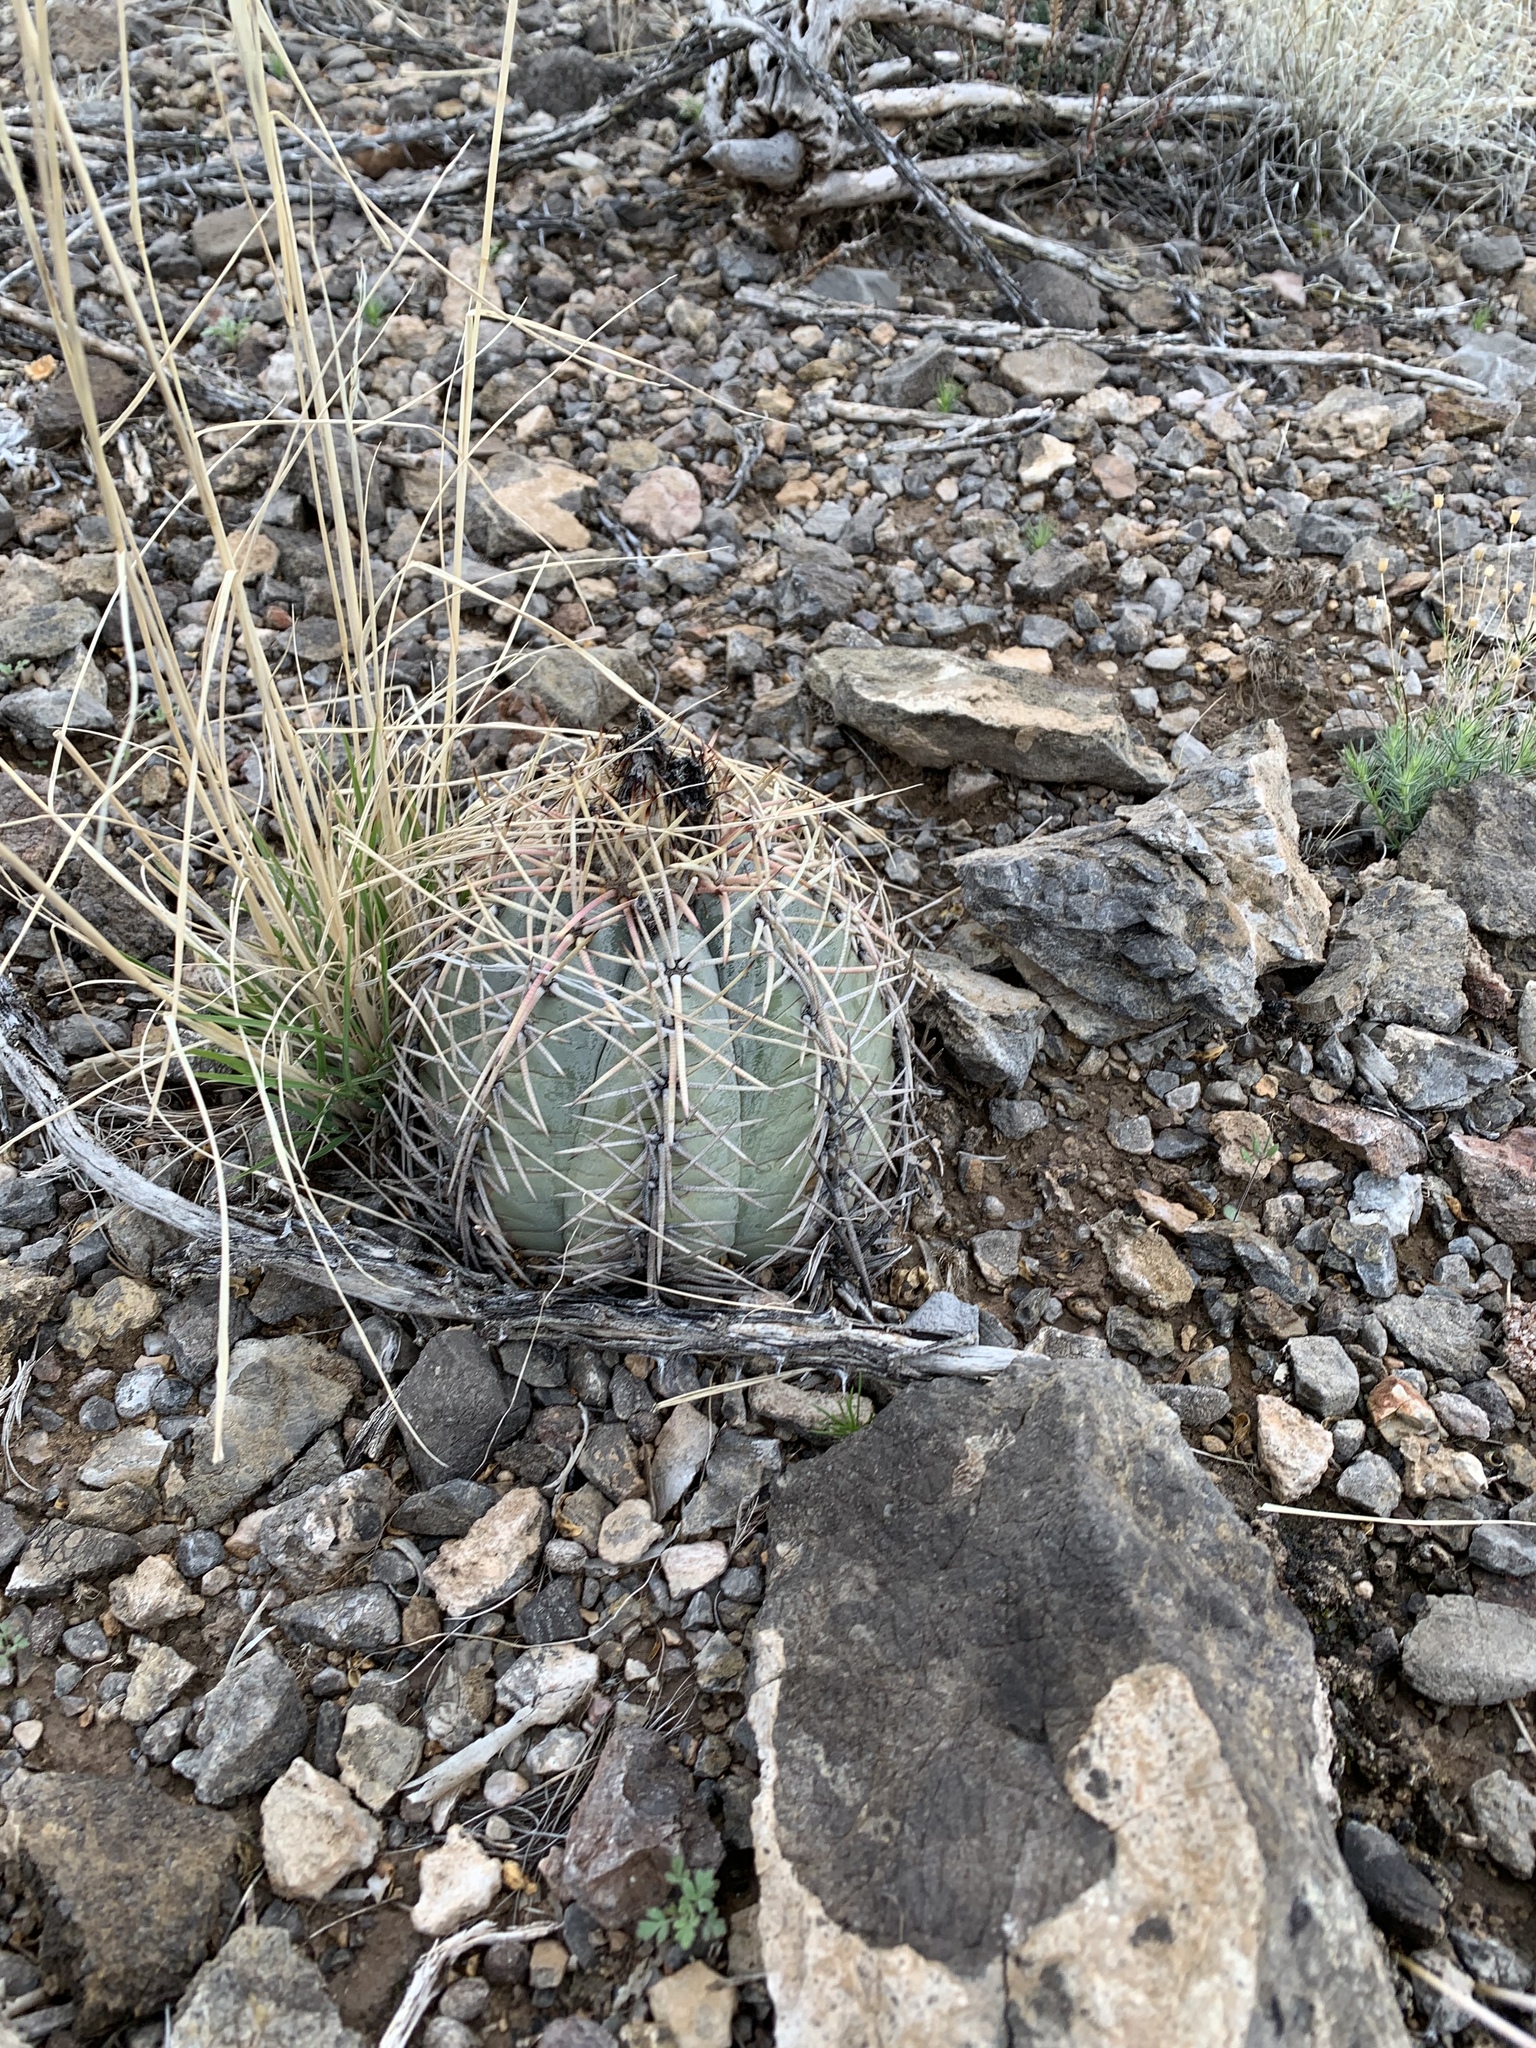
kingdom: Plantae
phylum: Tracheophyta
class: Magnoliopsida
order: Caryophyllales
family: Cactaceae
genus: Echinocactus
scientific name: Echinocactus horizonthalonius
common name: Devilshead
